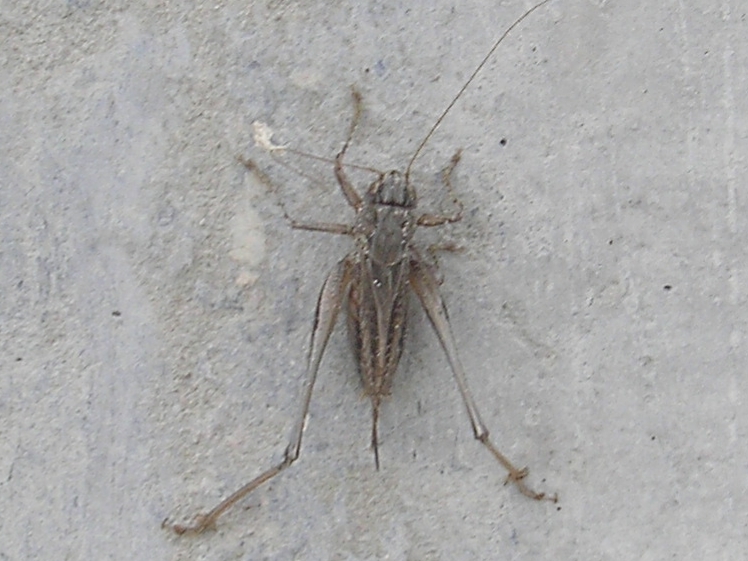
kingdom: Animalia
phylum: Arthropoda
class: Insecta
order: Orthoptera
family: Tettigoniidae
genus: Platycleis
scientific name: Platycleis albopunctata
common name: Grey bush-cricket
